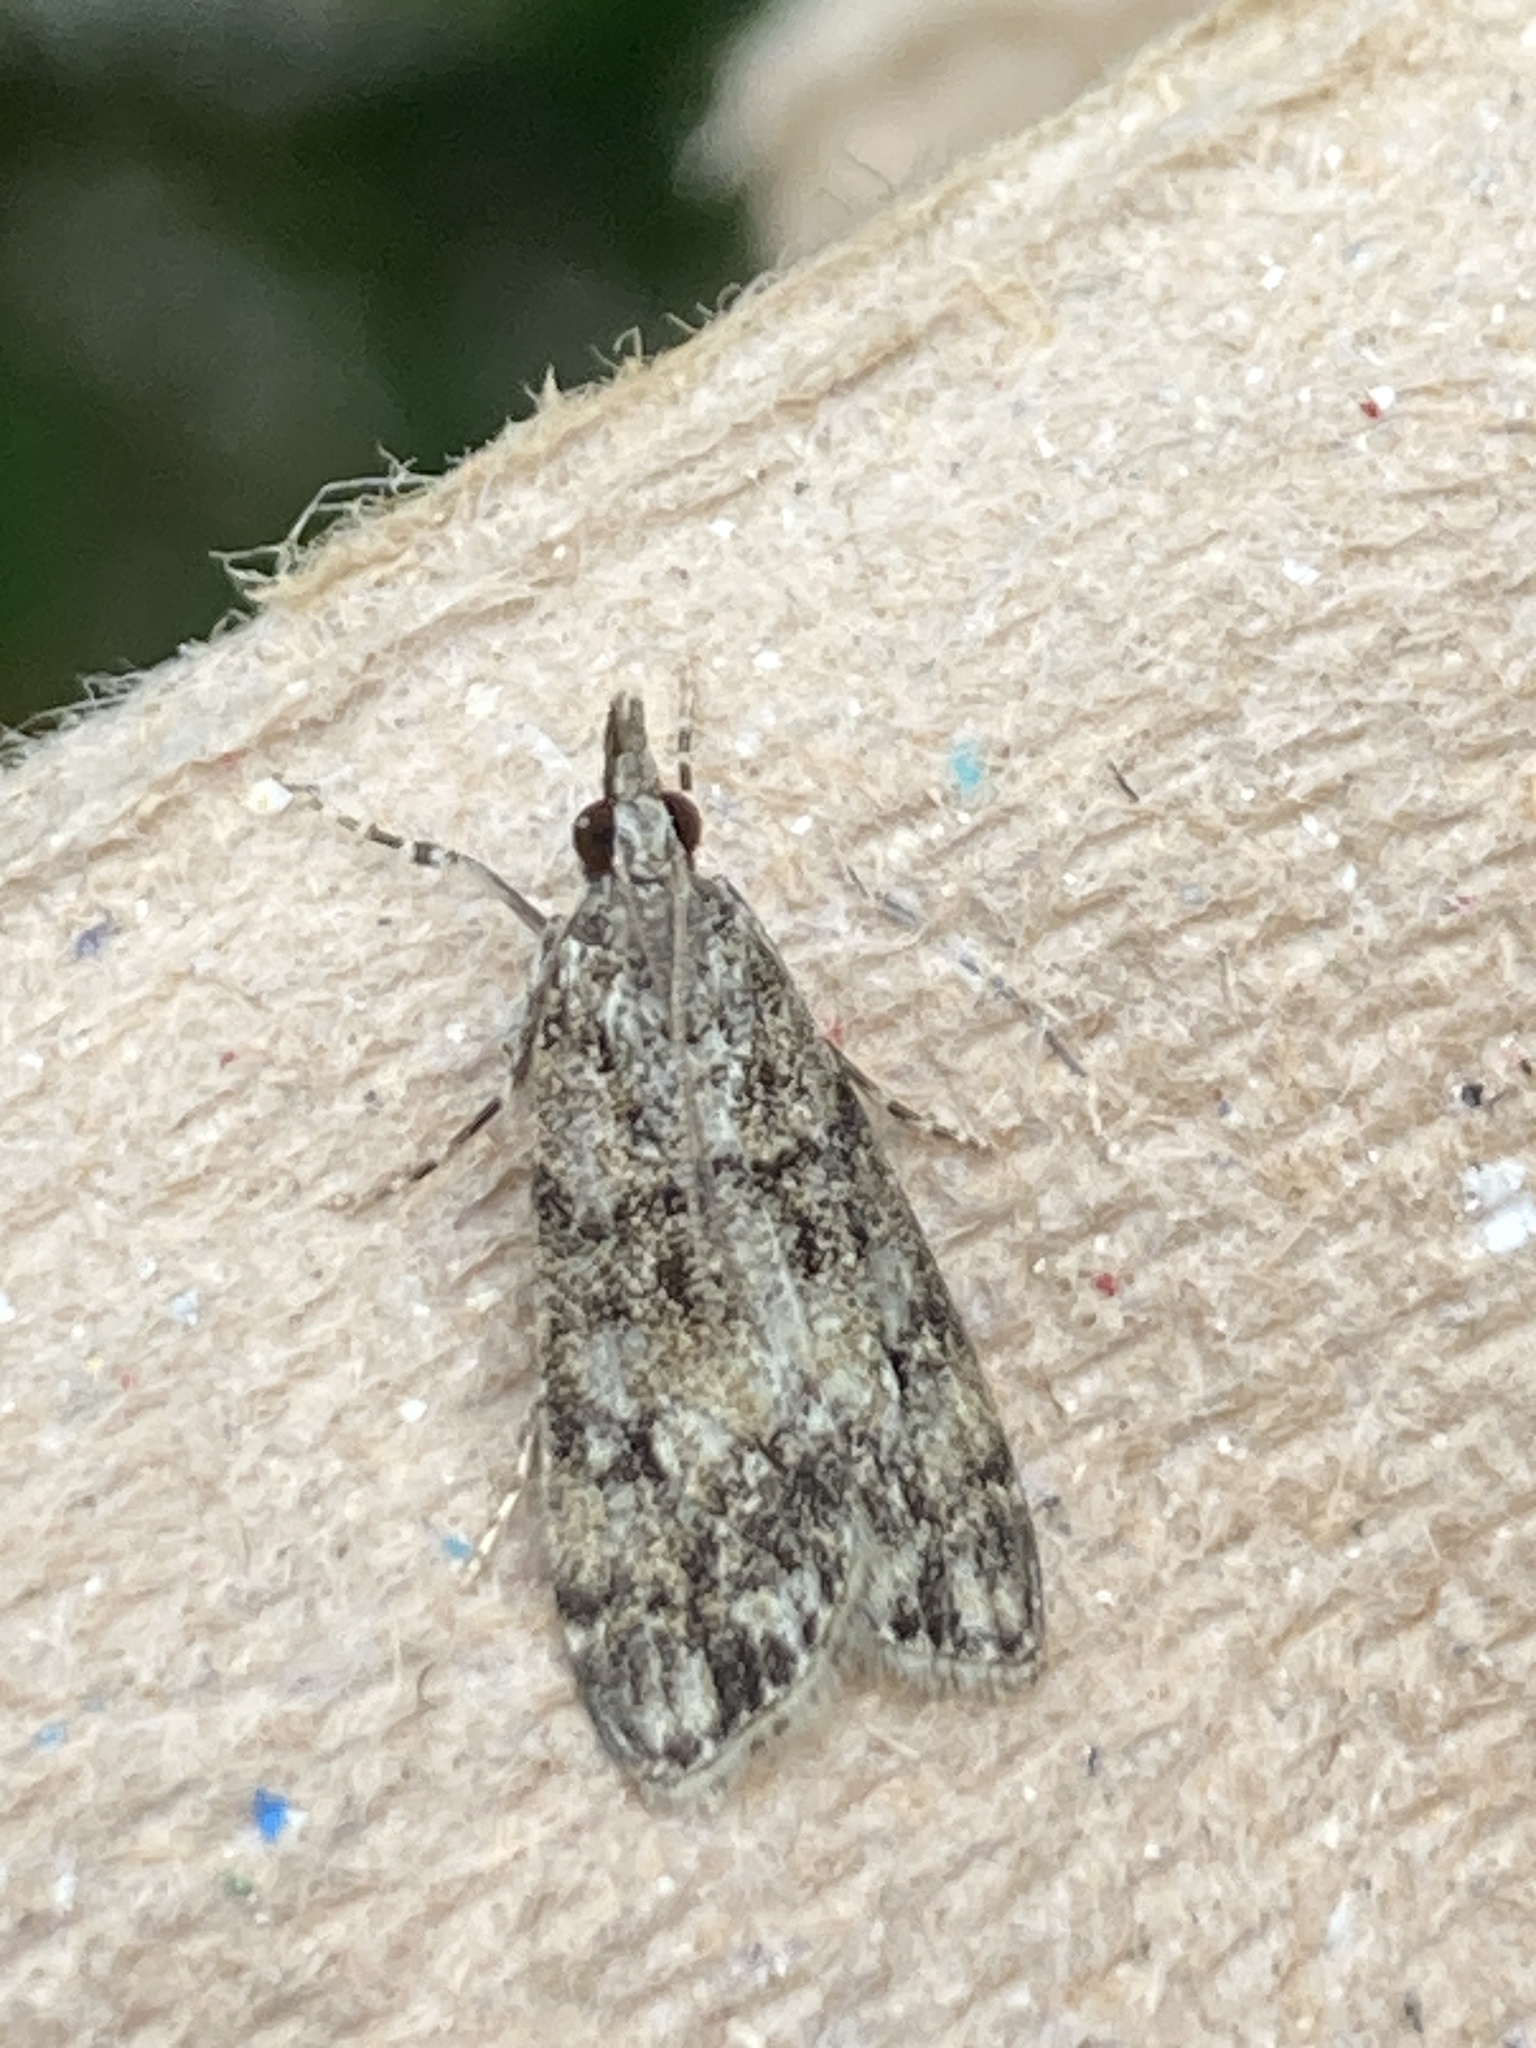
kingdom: Animalia
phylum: Arthropoda
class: Insecta
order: Lepidoptera
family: Crambidae
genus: Eudonia
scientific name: Eudonia lacustrata
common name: Little grey
